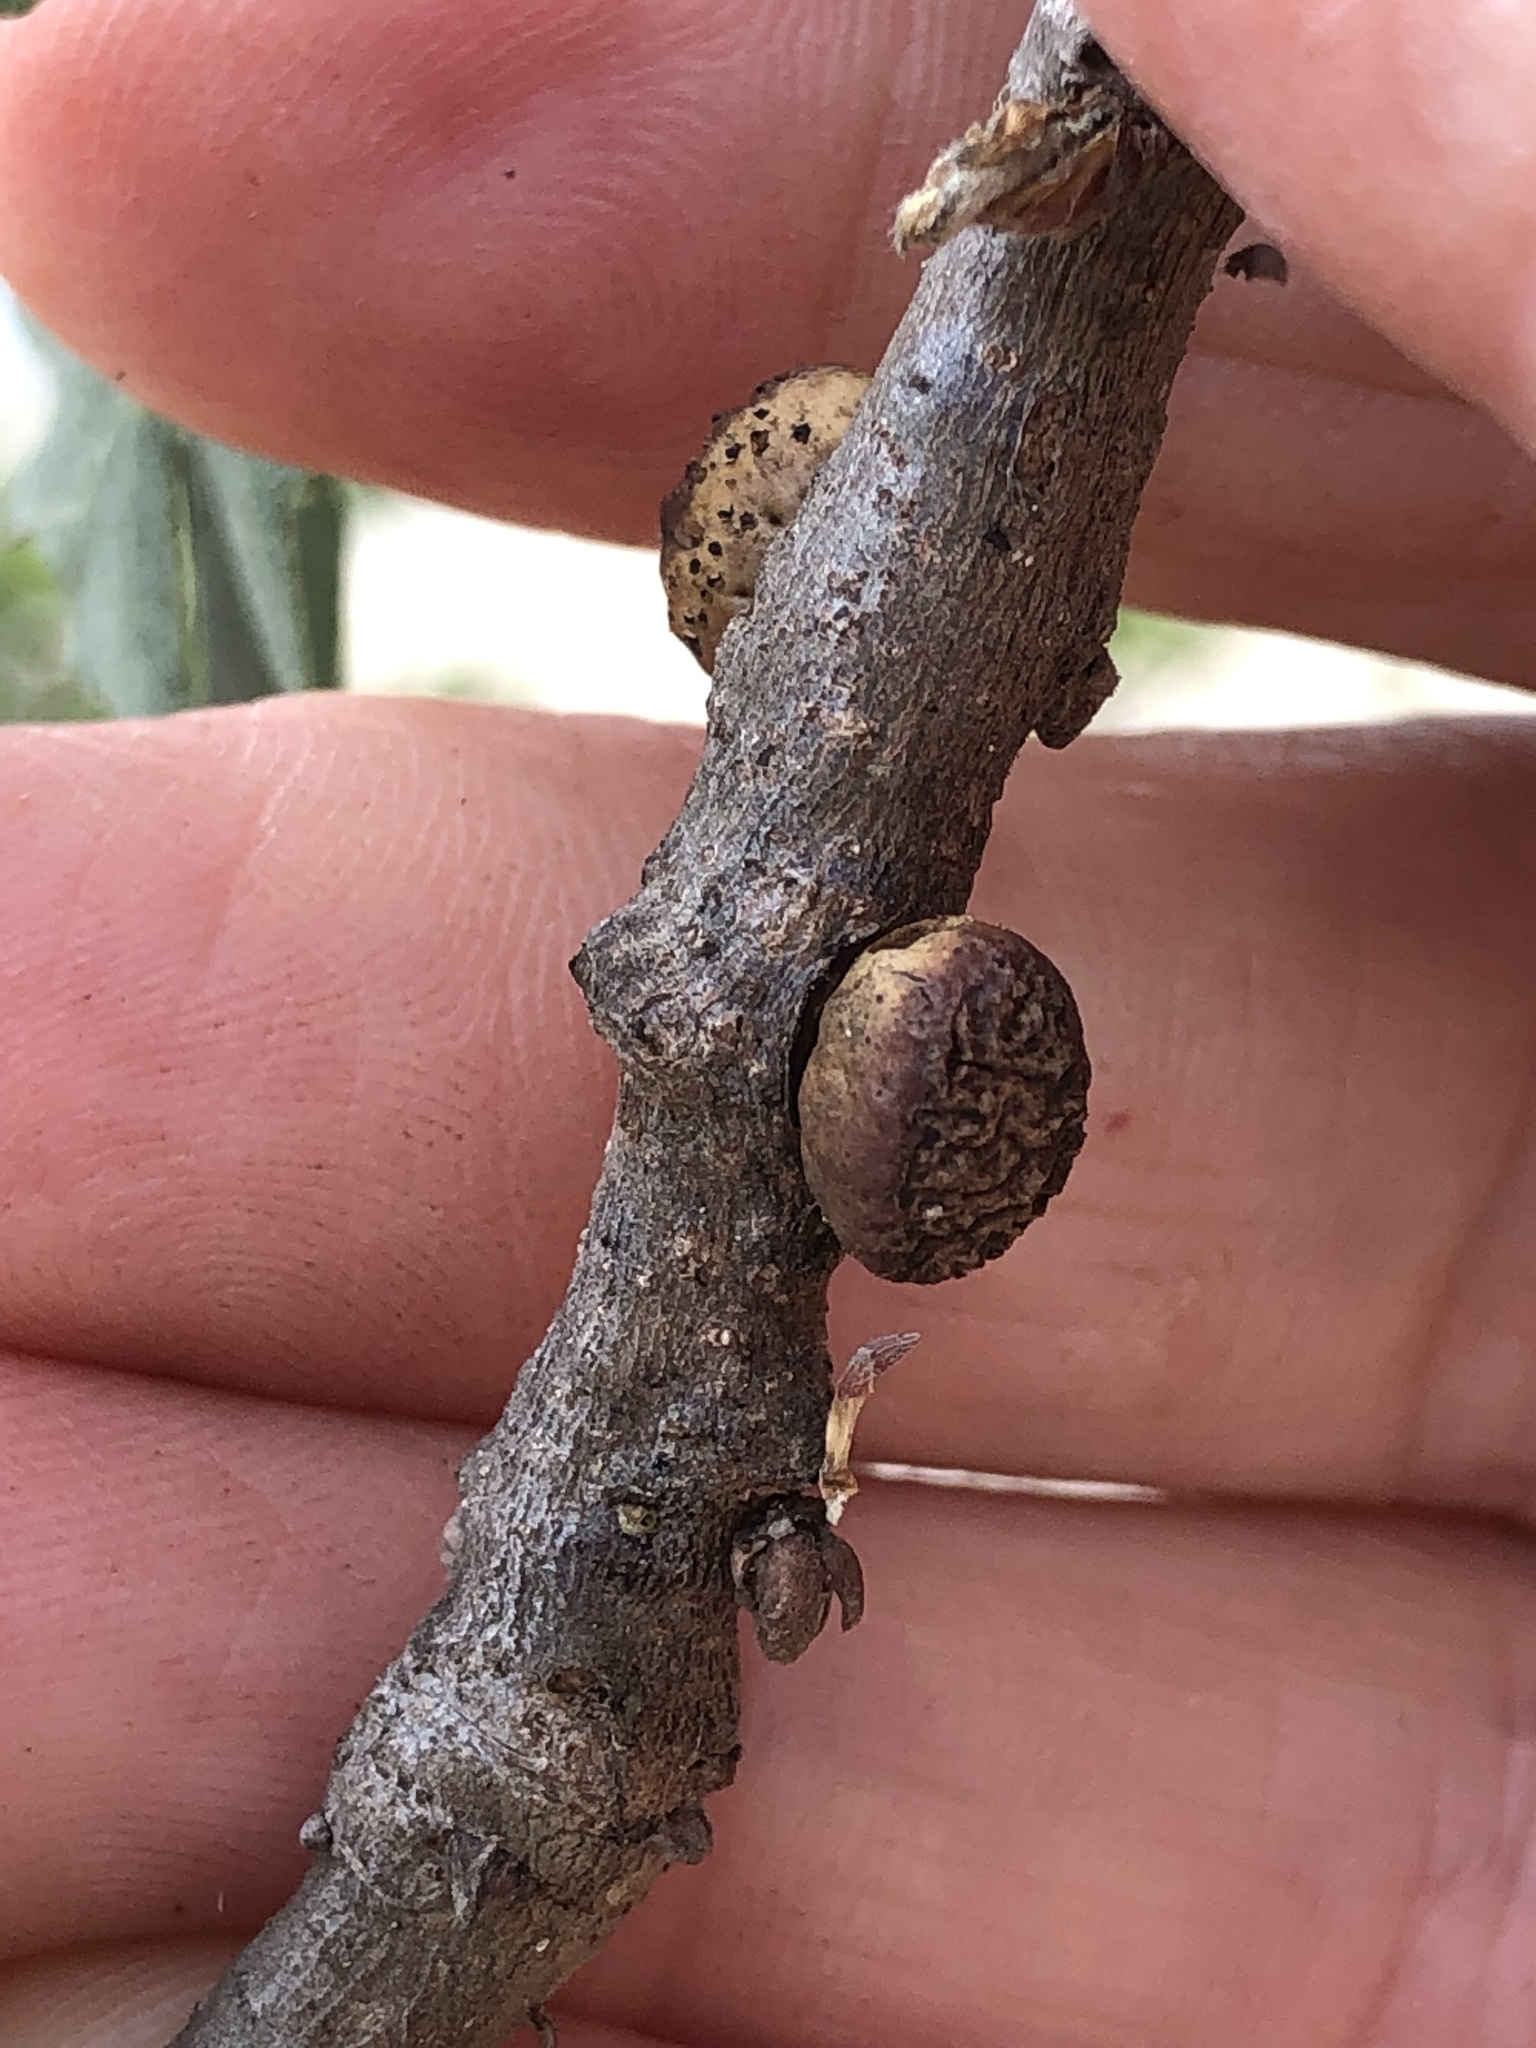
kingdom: Animalia
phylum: Arthropoda
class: Insecta
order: Hymenoptera
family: Cynipidae
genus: Disholcaspis
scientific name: Disholcaspis
